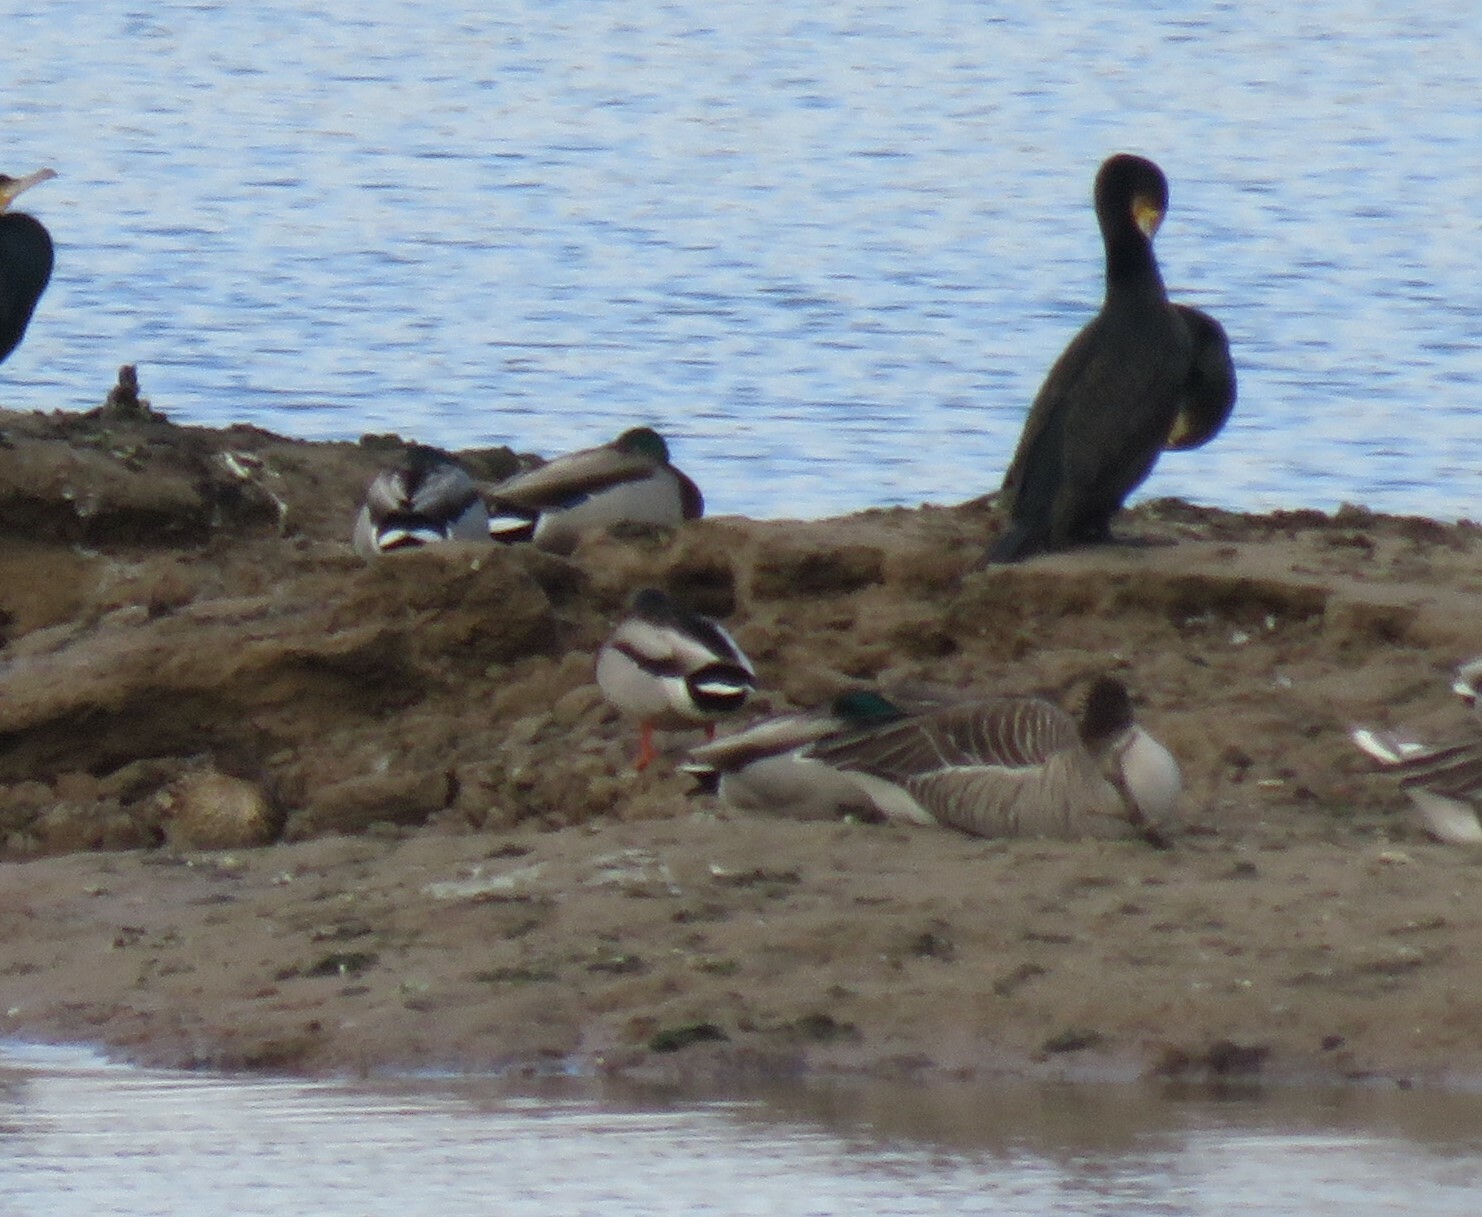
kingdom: Animalia
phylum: Chordata
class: Aves
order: Anseriformes
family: Anatidae
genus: Anas
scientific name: Anas platyrhynchos
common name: Mallard
